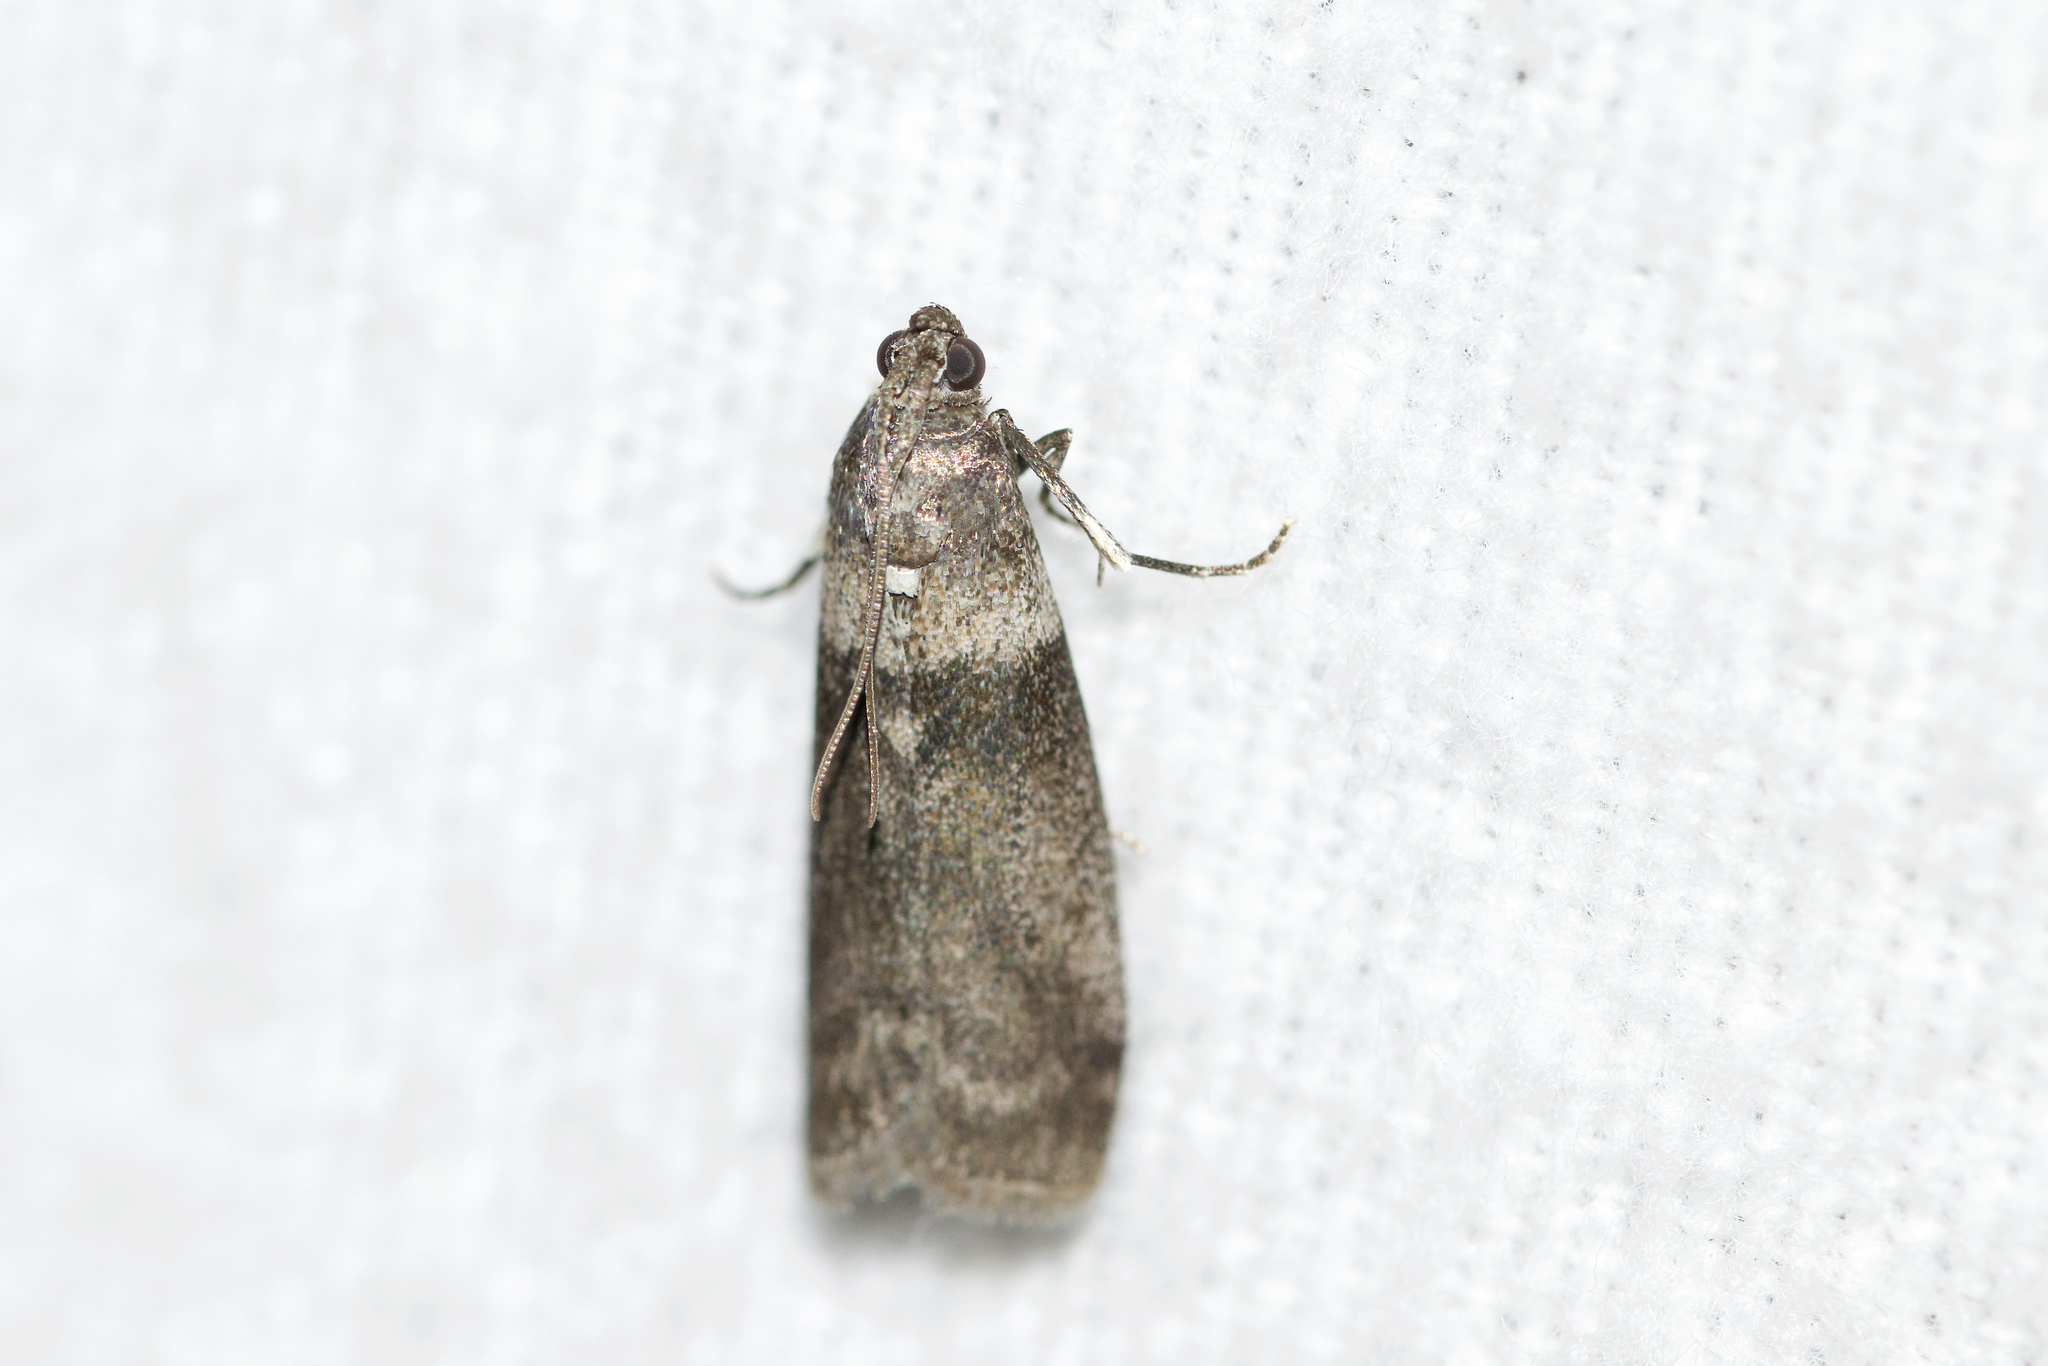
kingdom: Animalia
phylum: Arthropoda
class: Insecta
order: Lepidoptera
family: Pyralidae
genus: Meroptera
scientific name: Meroptera pravella
